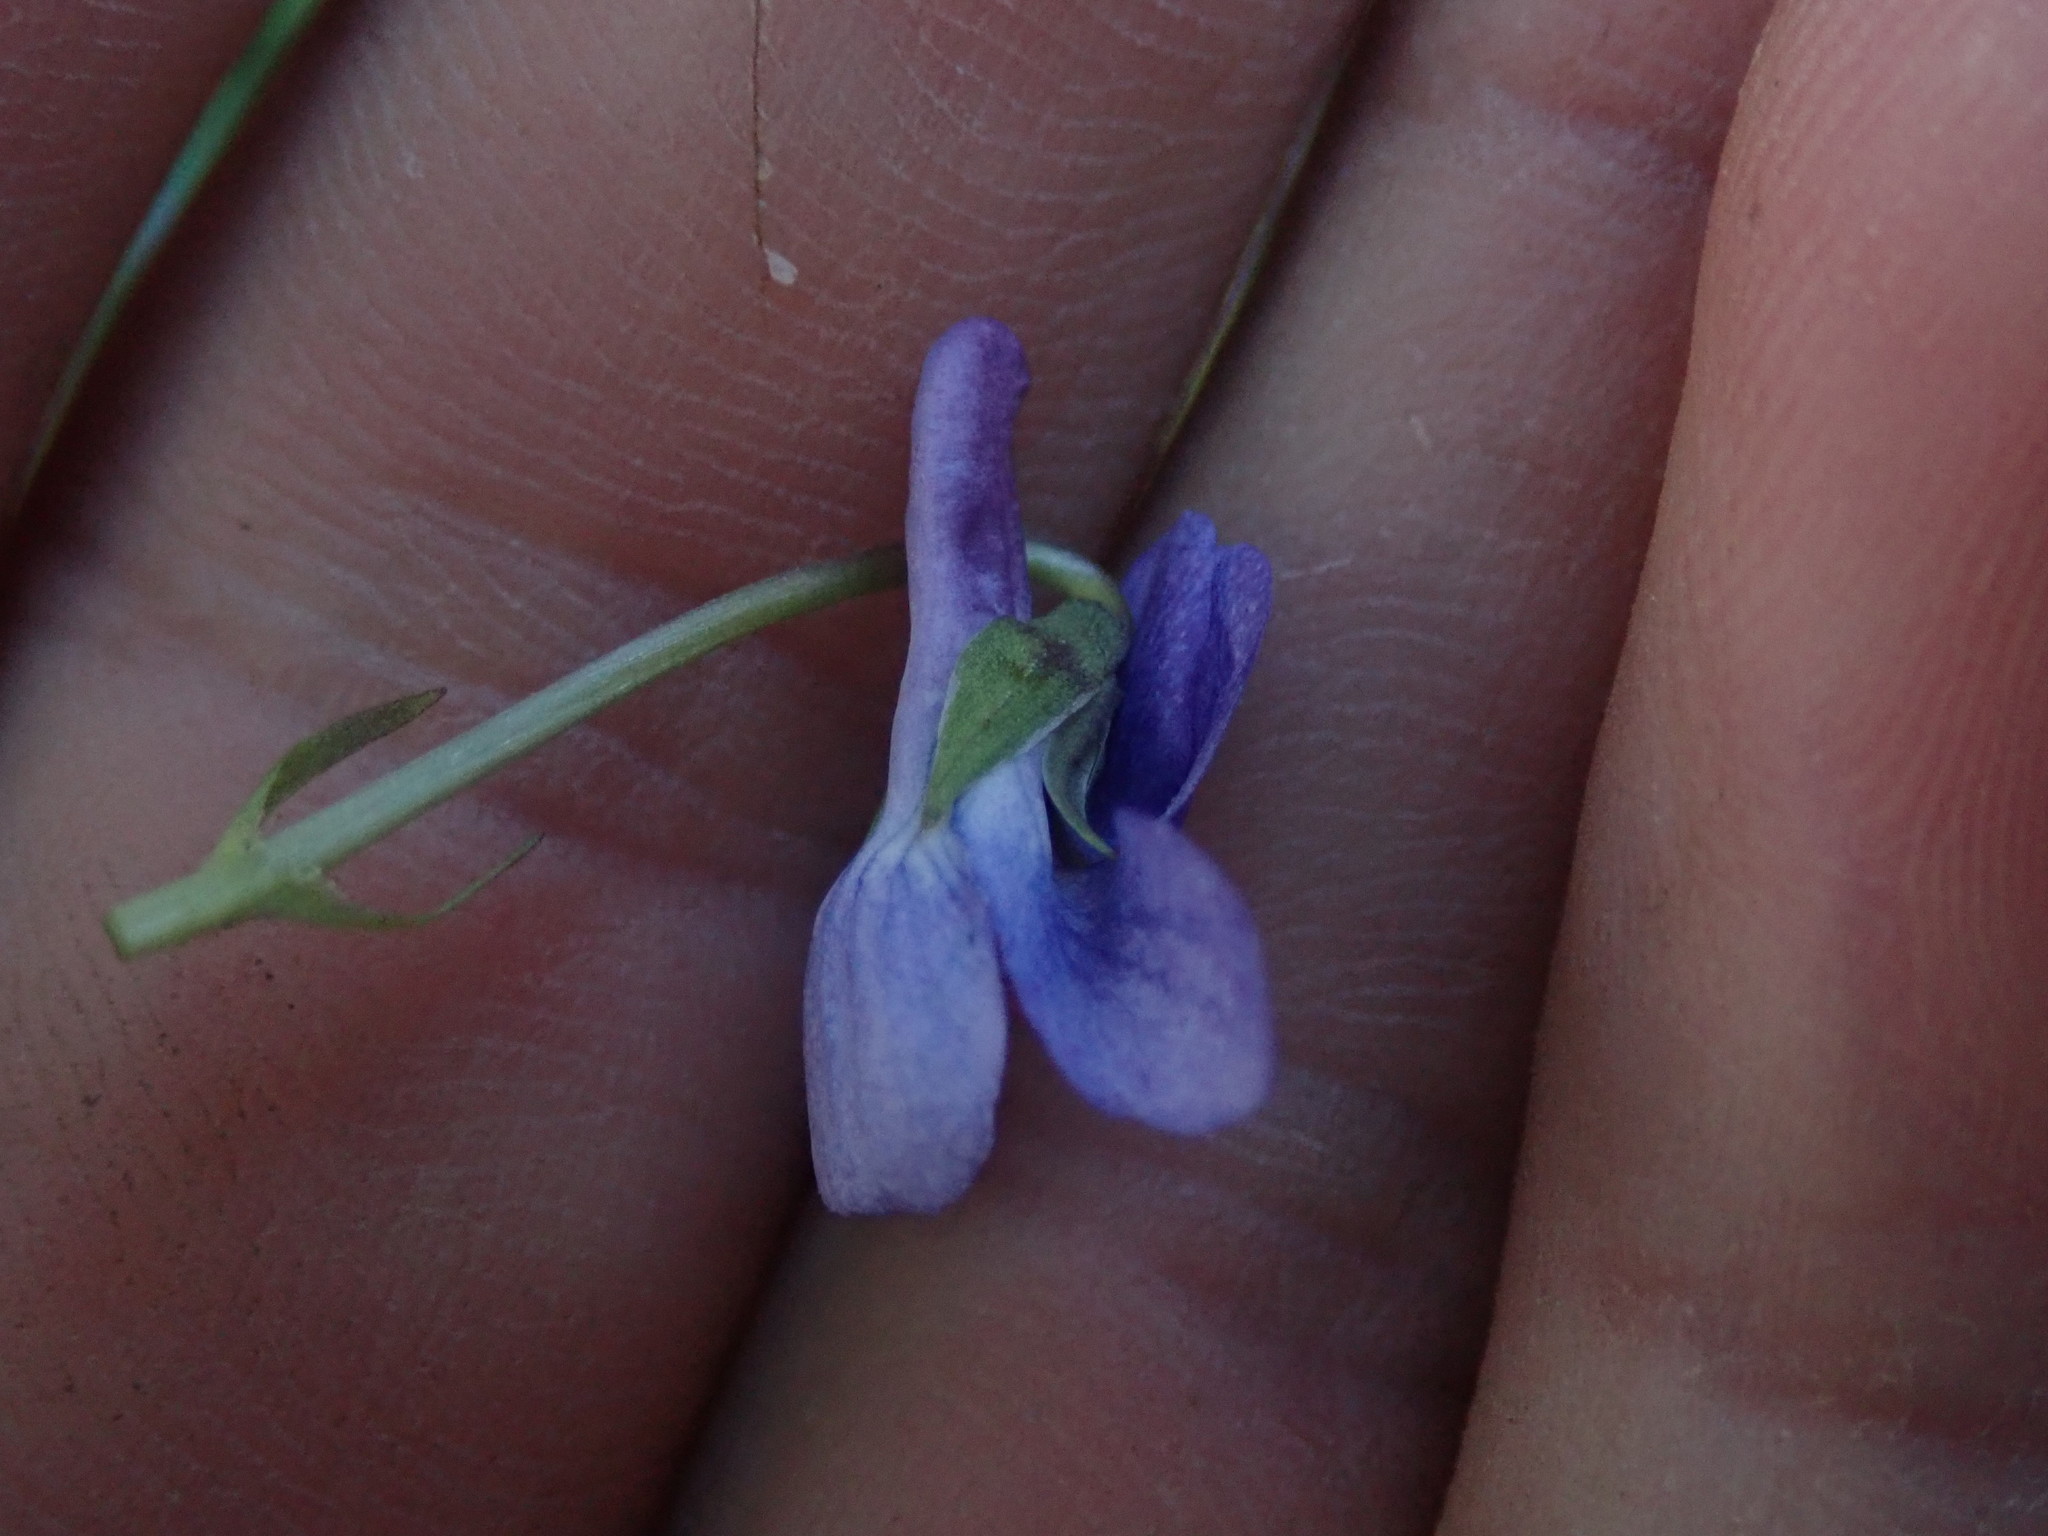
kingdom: Plantae
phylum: Tracheophyta
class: Magnoliopsida
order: Malpighiales
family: Violaceae
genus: Viola
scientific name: Viola adunca
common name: Sand violet
